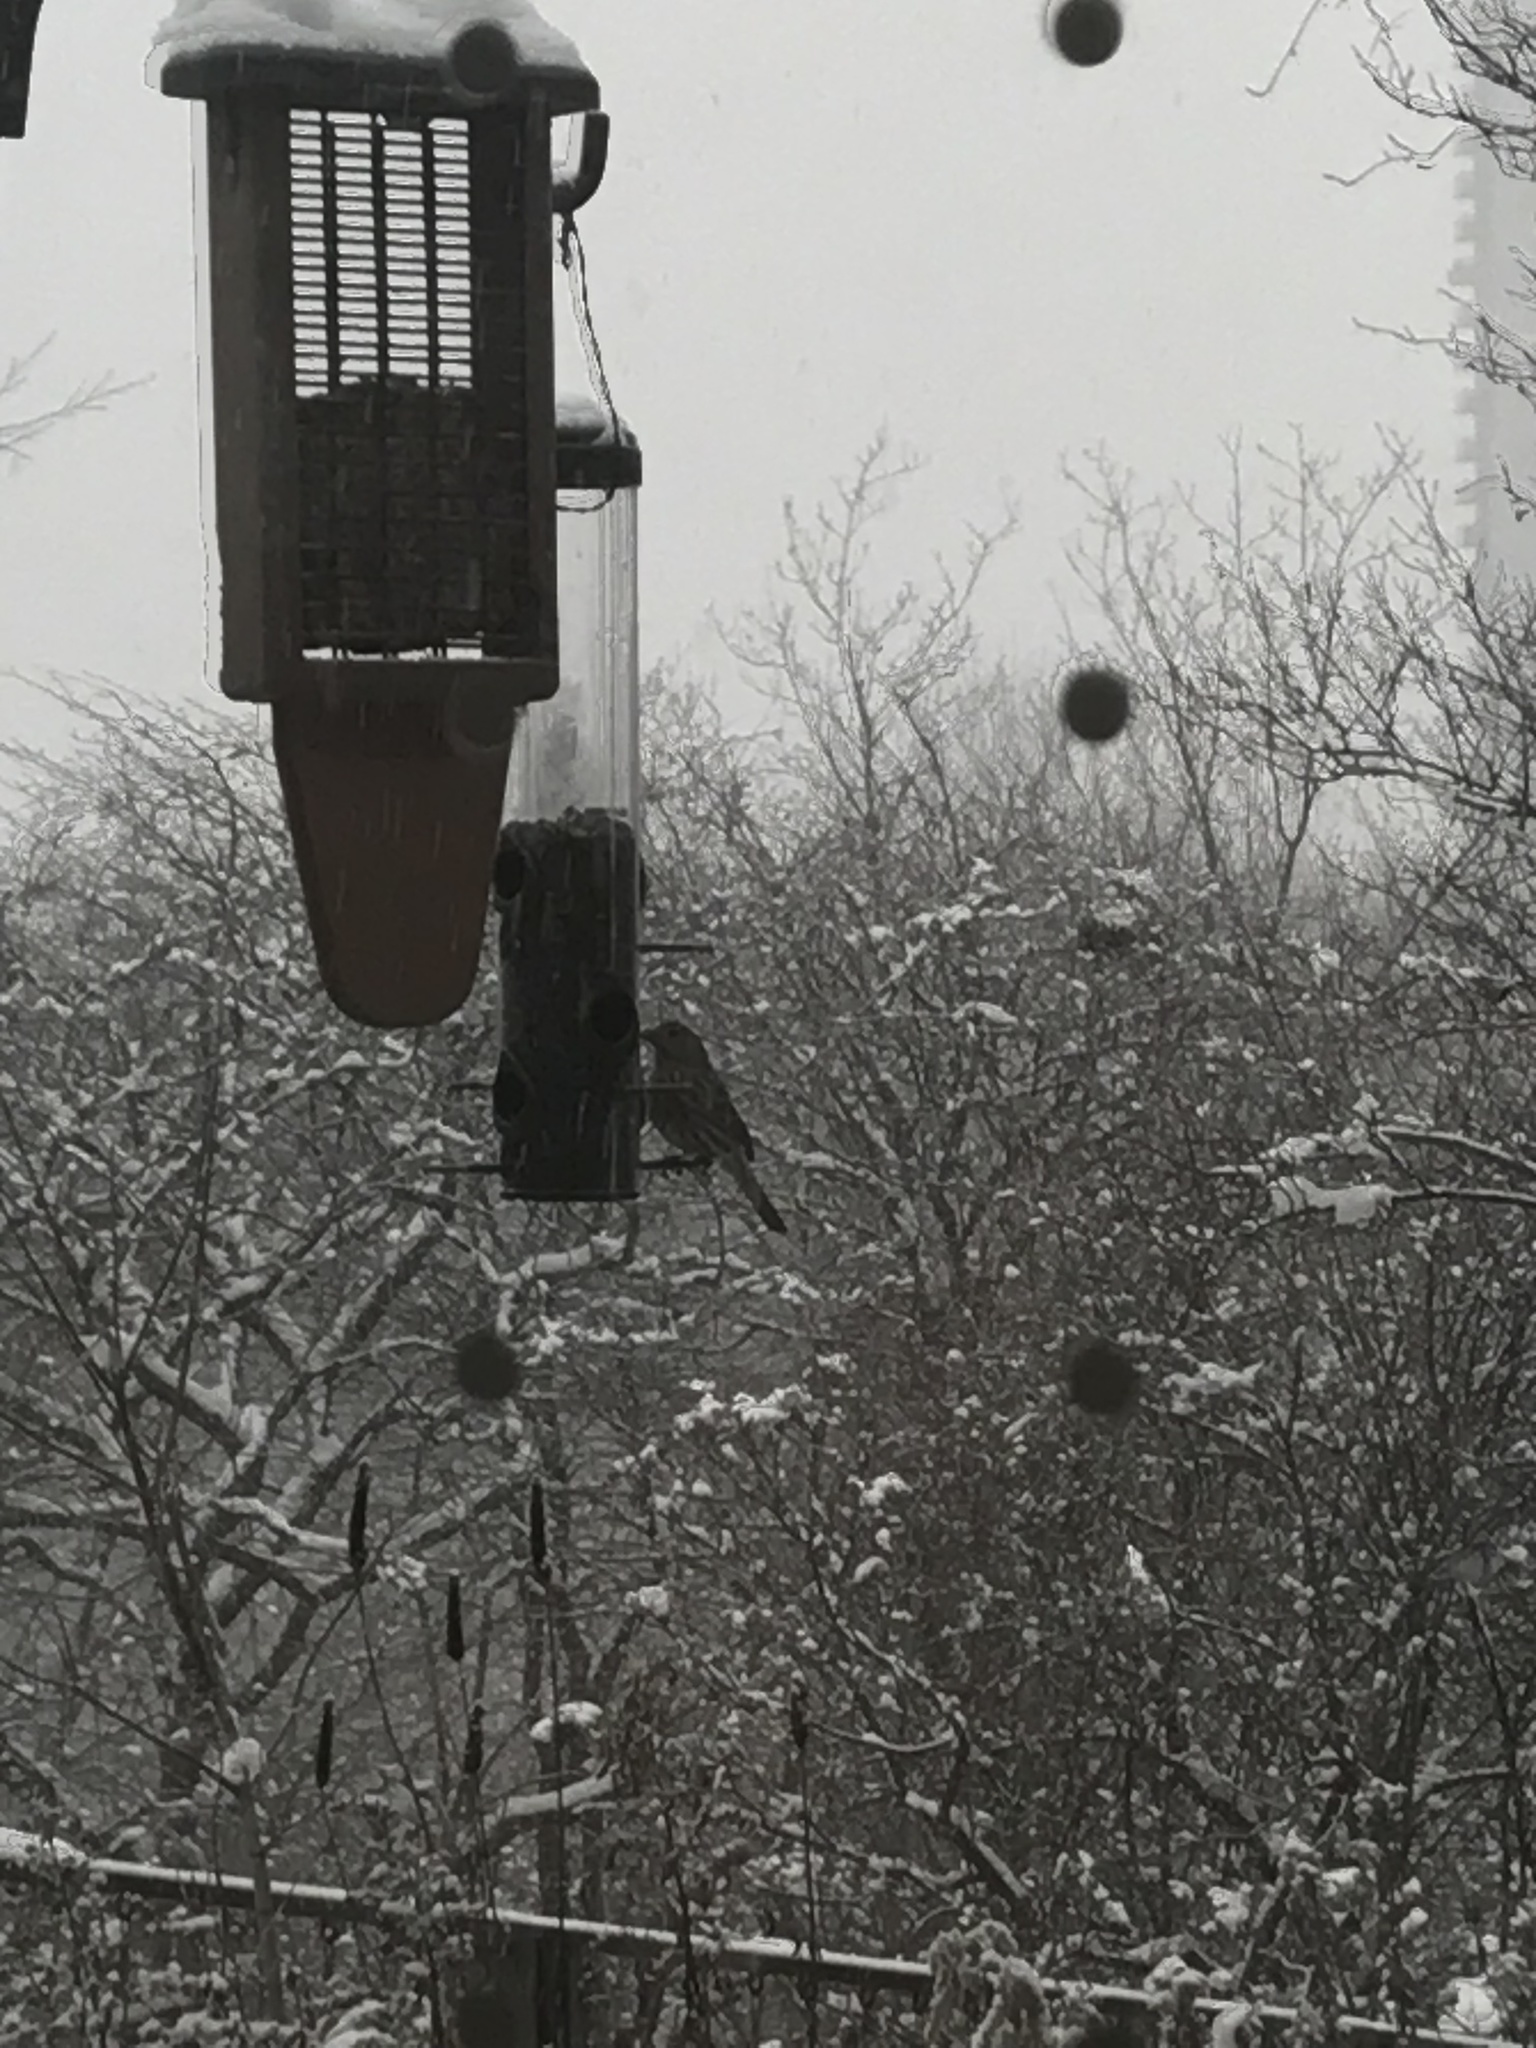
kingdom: Animalia
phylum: Chordata
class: Aves
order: Passeriformes
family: Fringillidae
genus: Haemorhous
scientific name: Haemorhous mexicanus
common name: House finch
